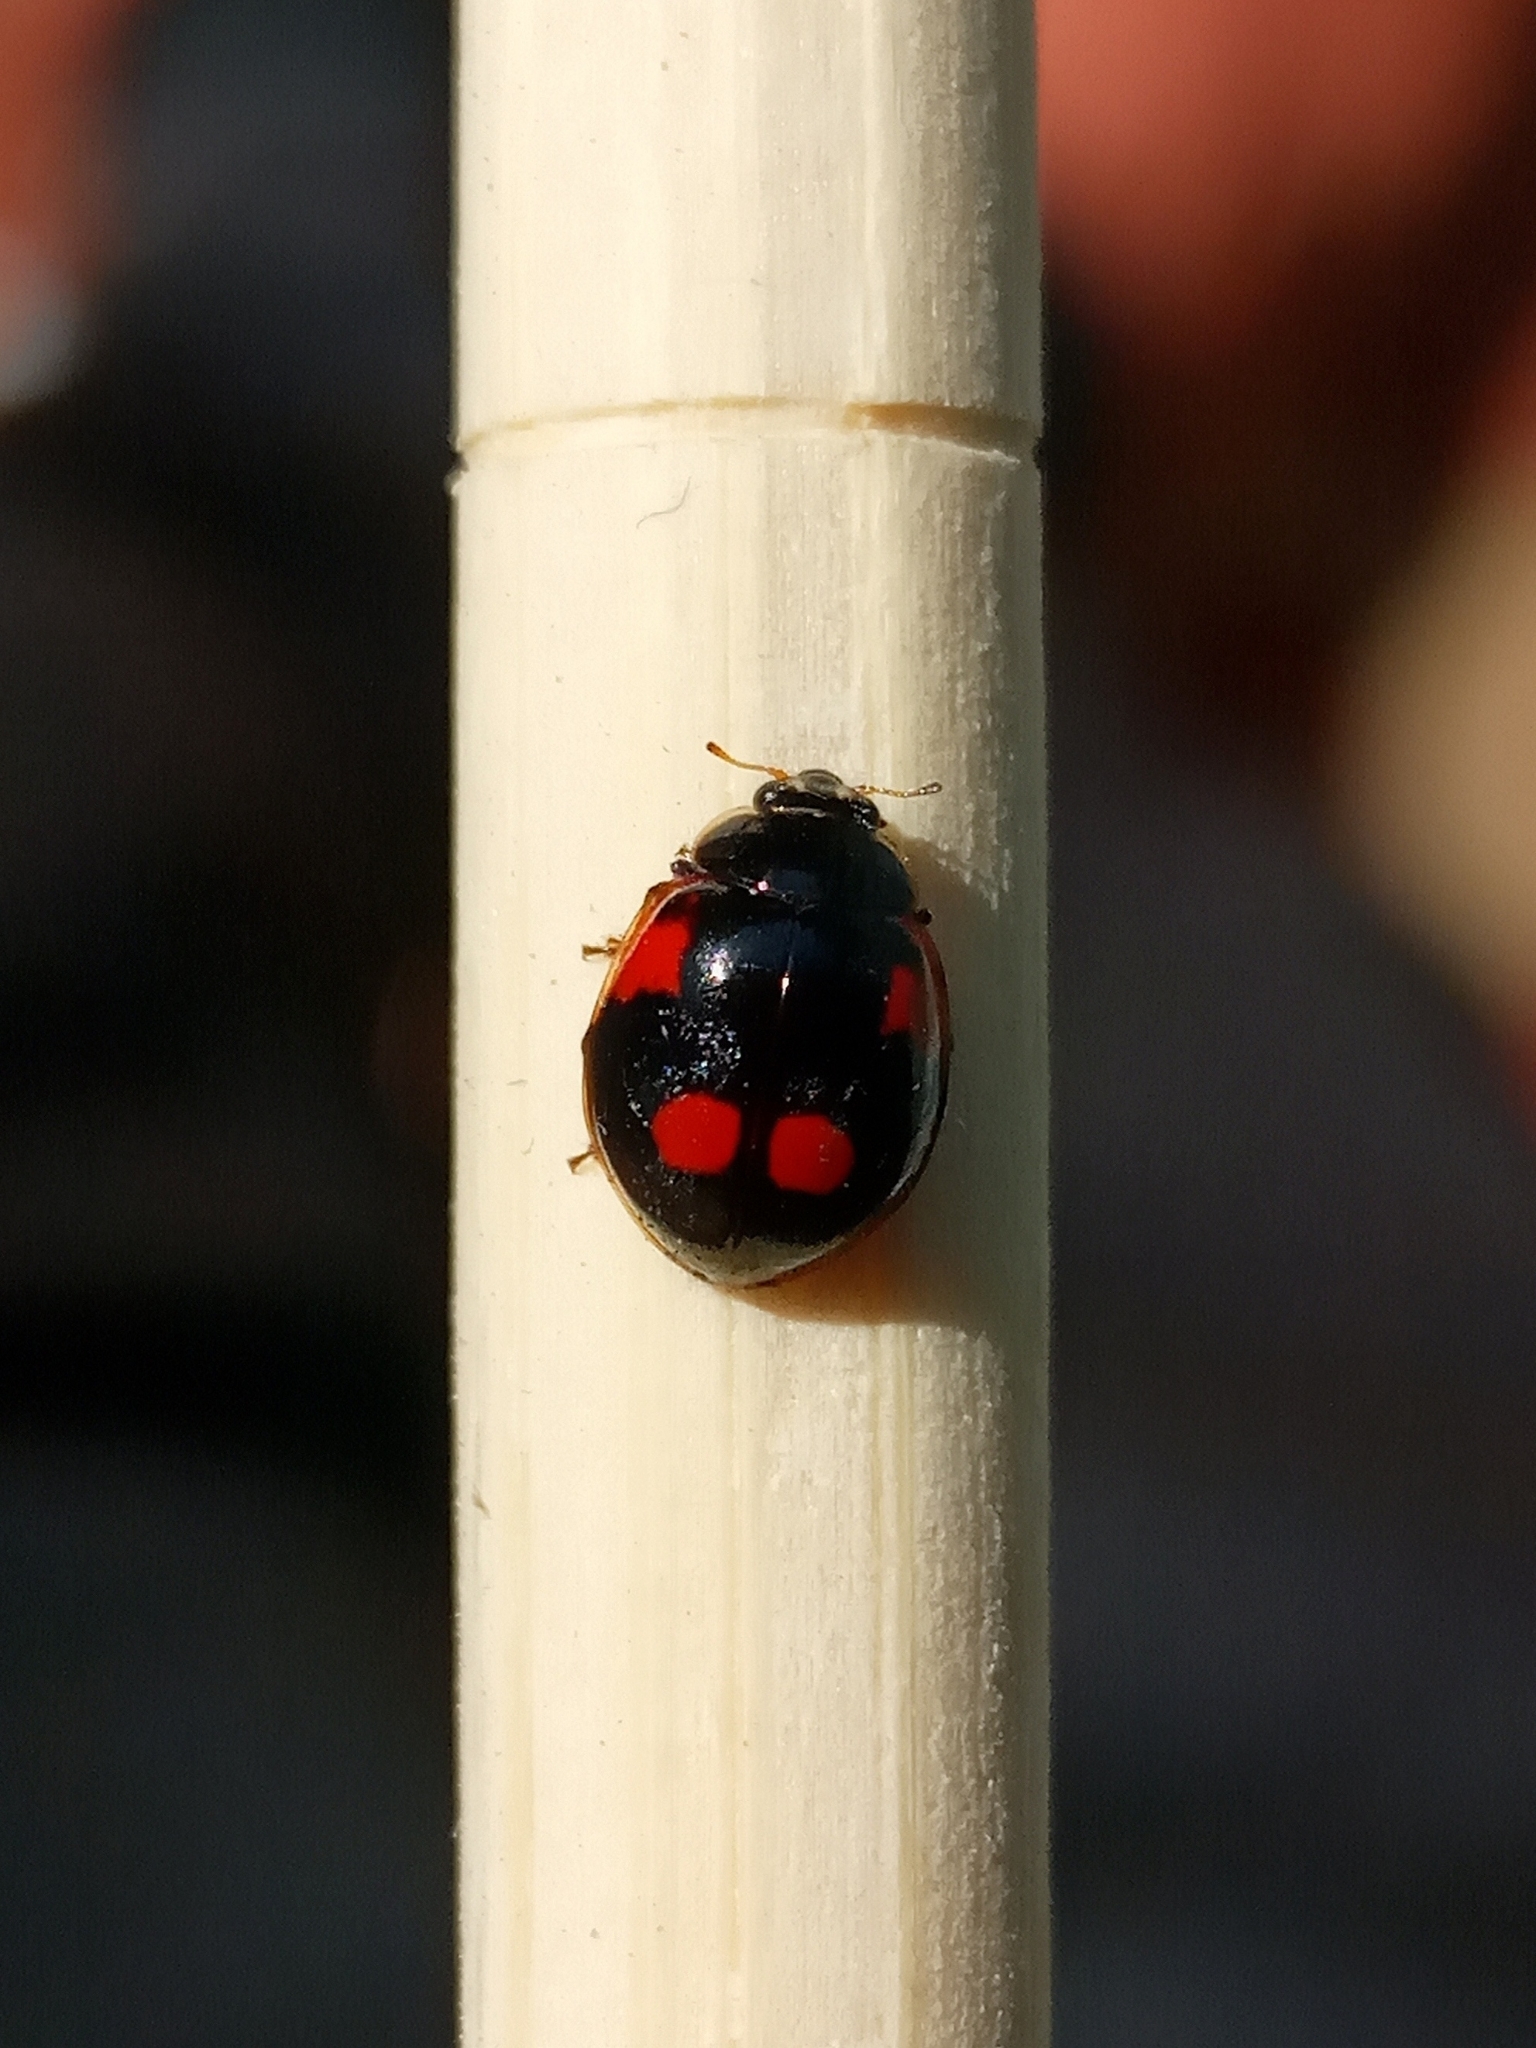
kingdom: Animalia
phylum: Arthropoda
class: Insecta
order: Coleoptera
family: Coccinellidae
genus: Adalia
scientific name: Adalia bipunctata
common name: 2-spot ladybird
